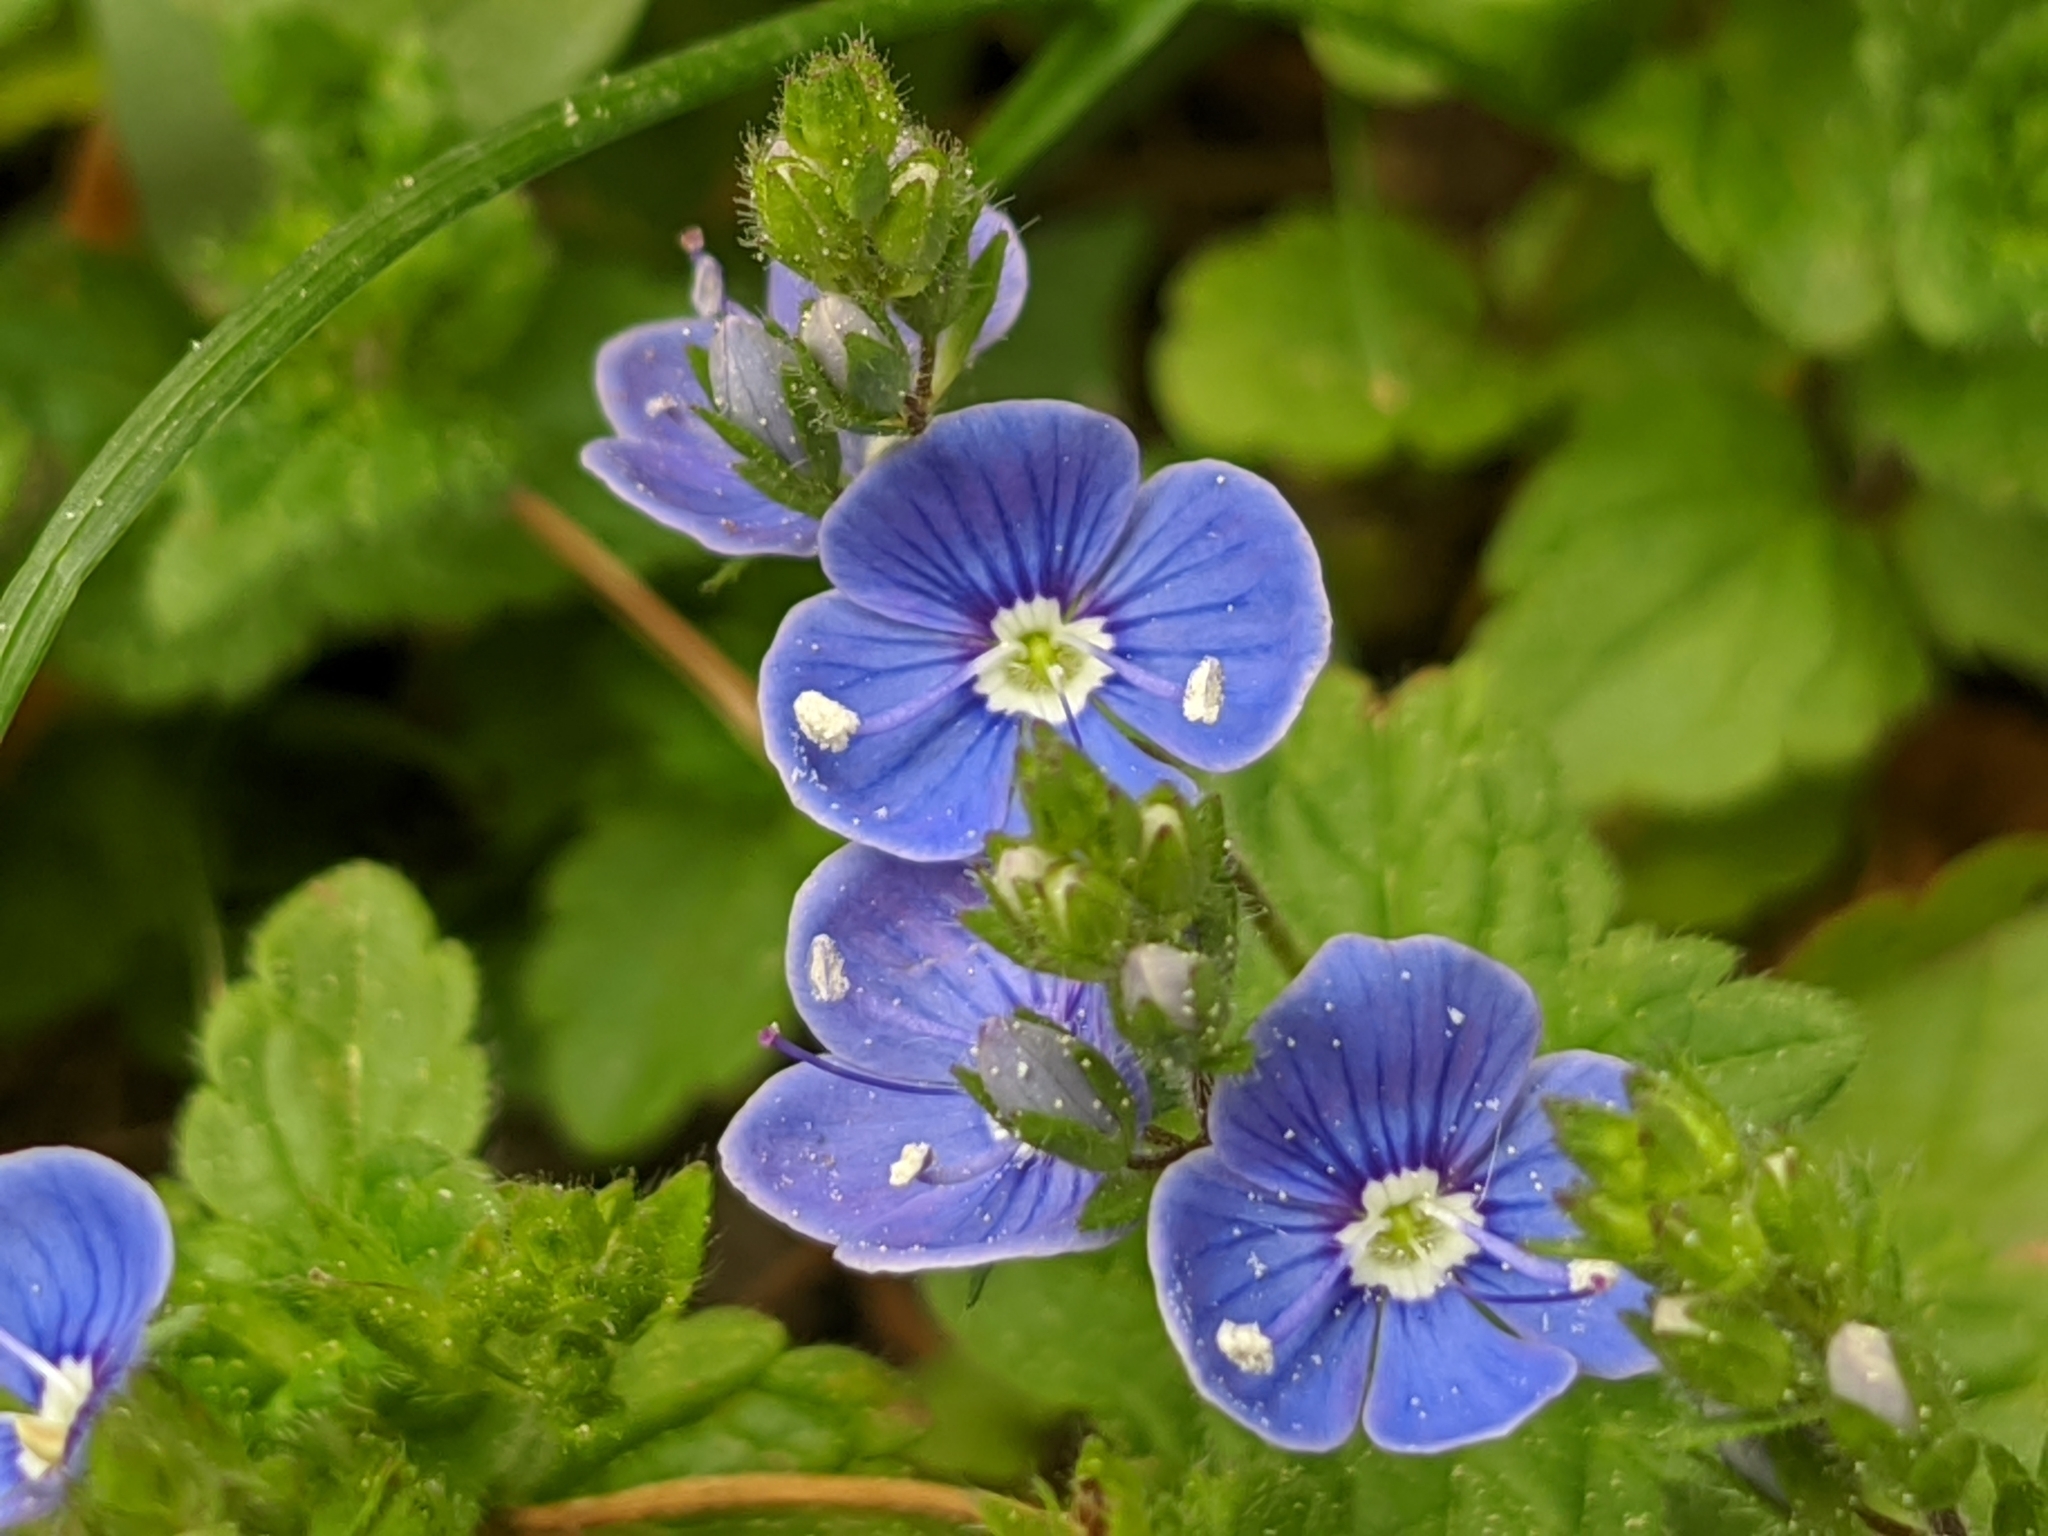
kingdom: Plantae
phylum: Tracheophyta
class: Magnoliopsida
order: Lamiales
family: Plantaginaceae
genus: Veronica
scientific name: Veronica chamaedrys
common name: Germander speedwell
